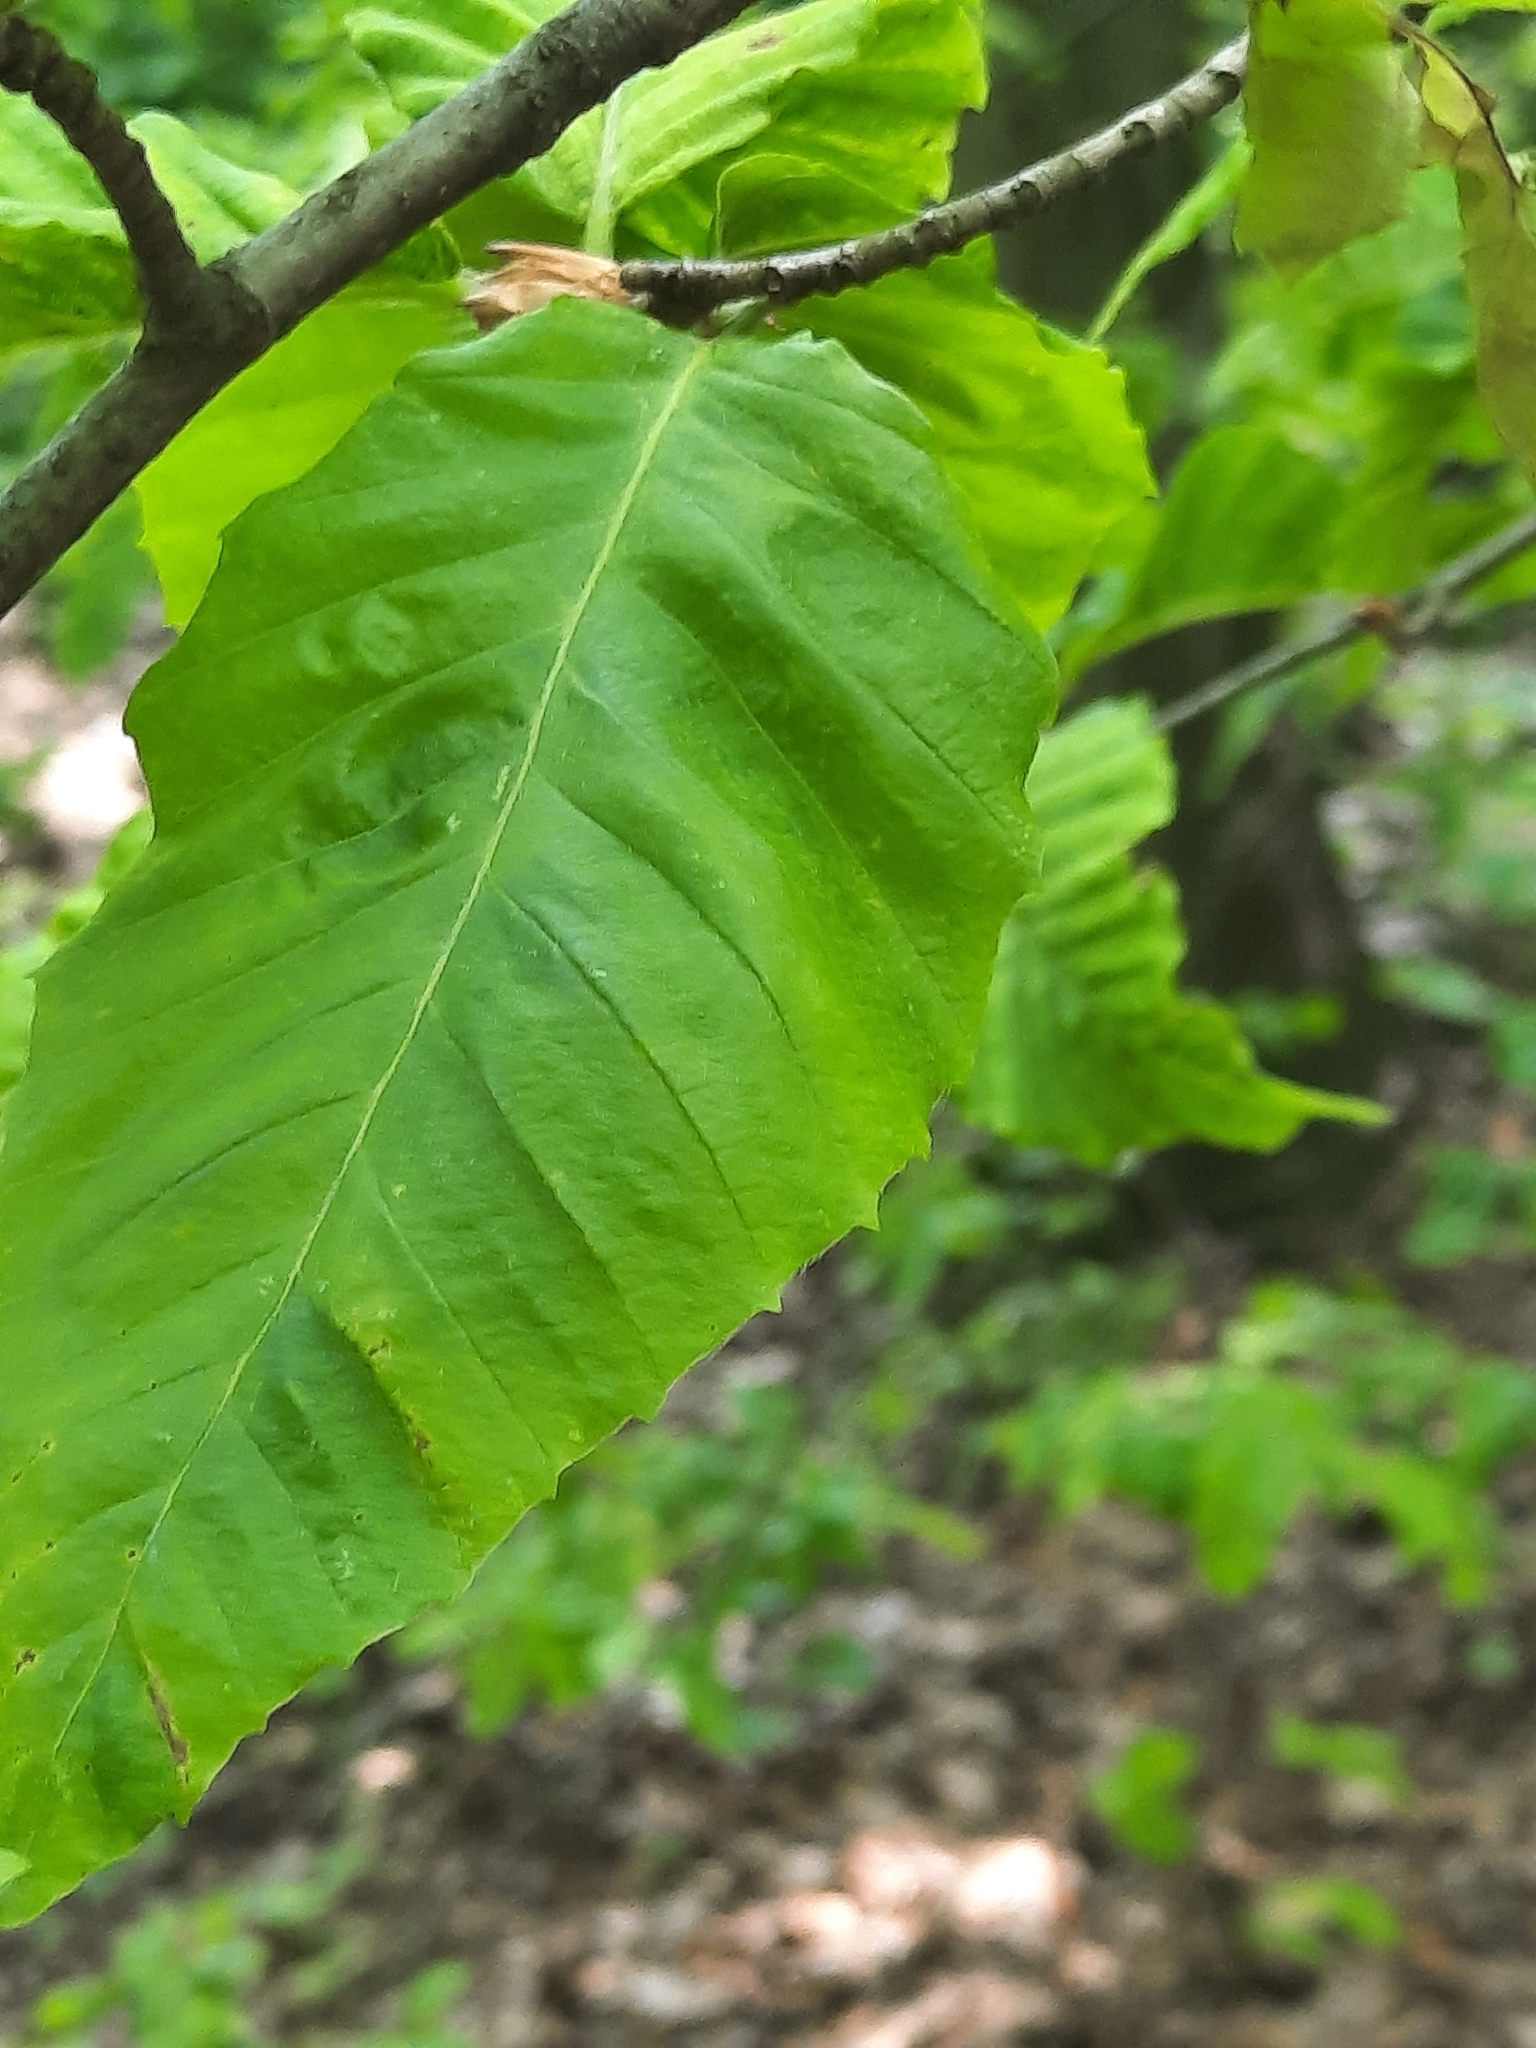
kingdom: Animalia
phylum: Nematoda
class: Chromadorea
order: Rhabditida
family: Anguinidae
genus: Litylenchus
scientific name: Litylenchus crenatae
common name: Beech leaf disease
